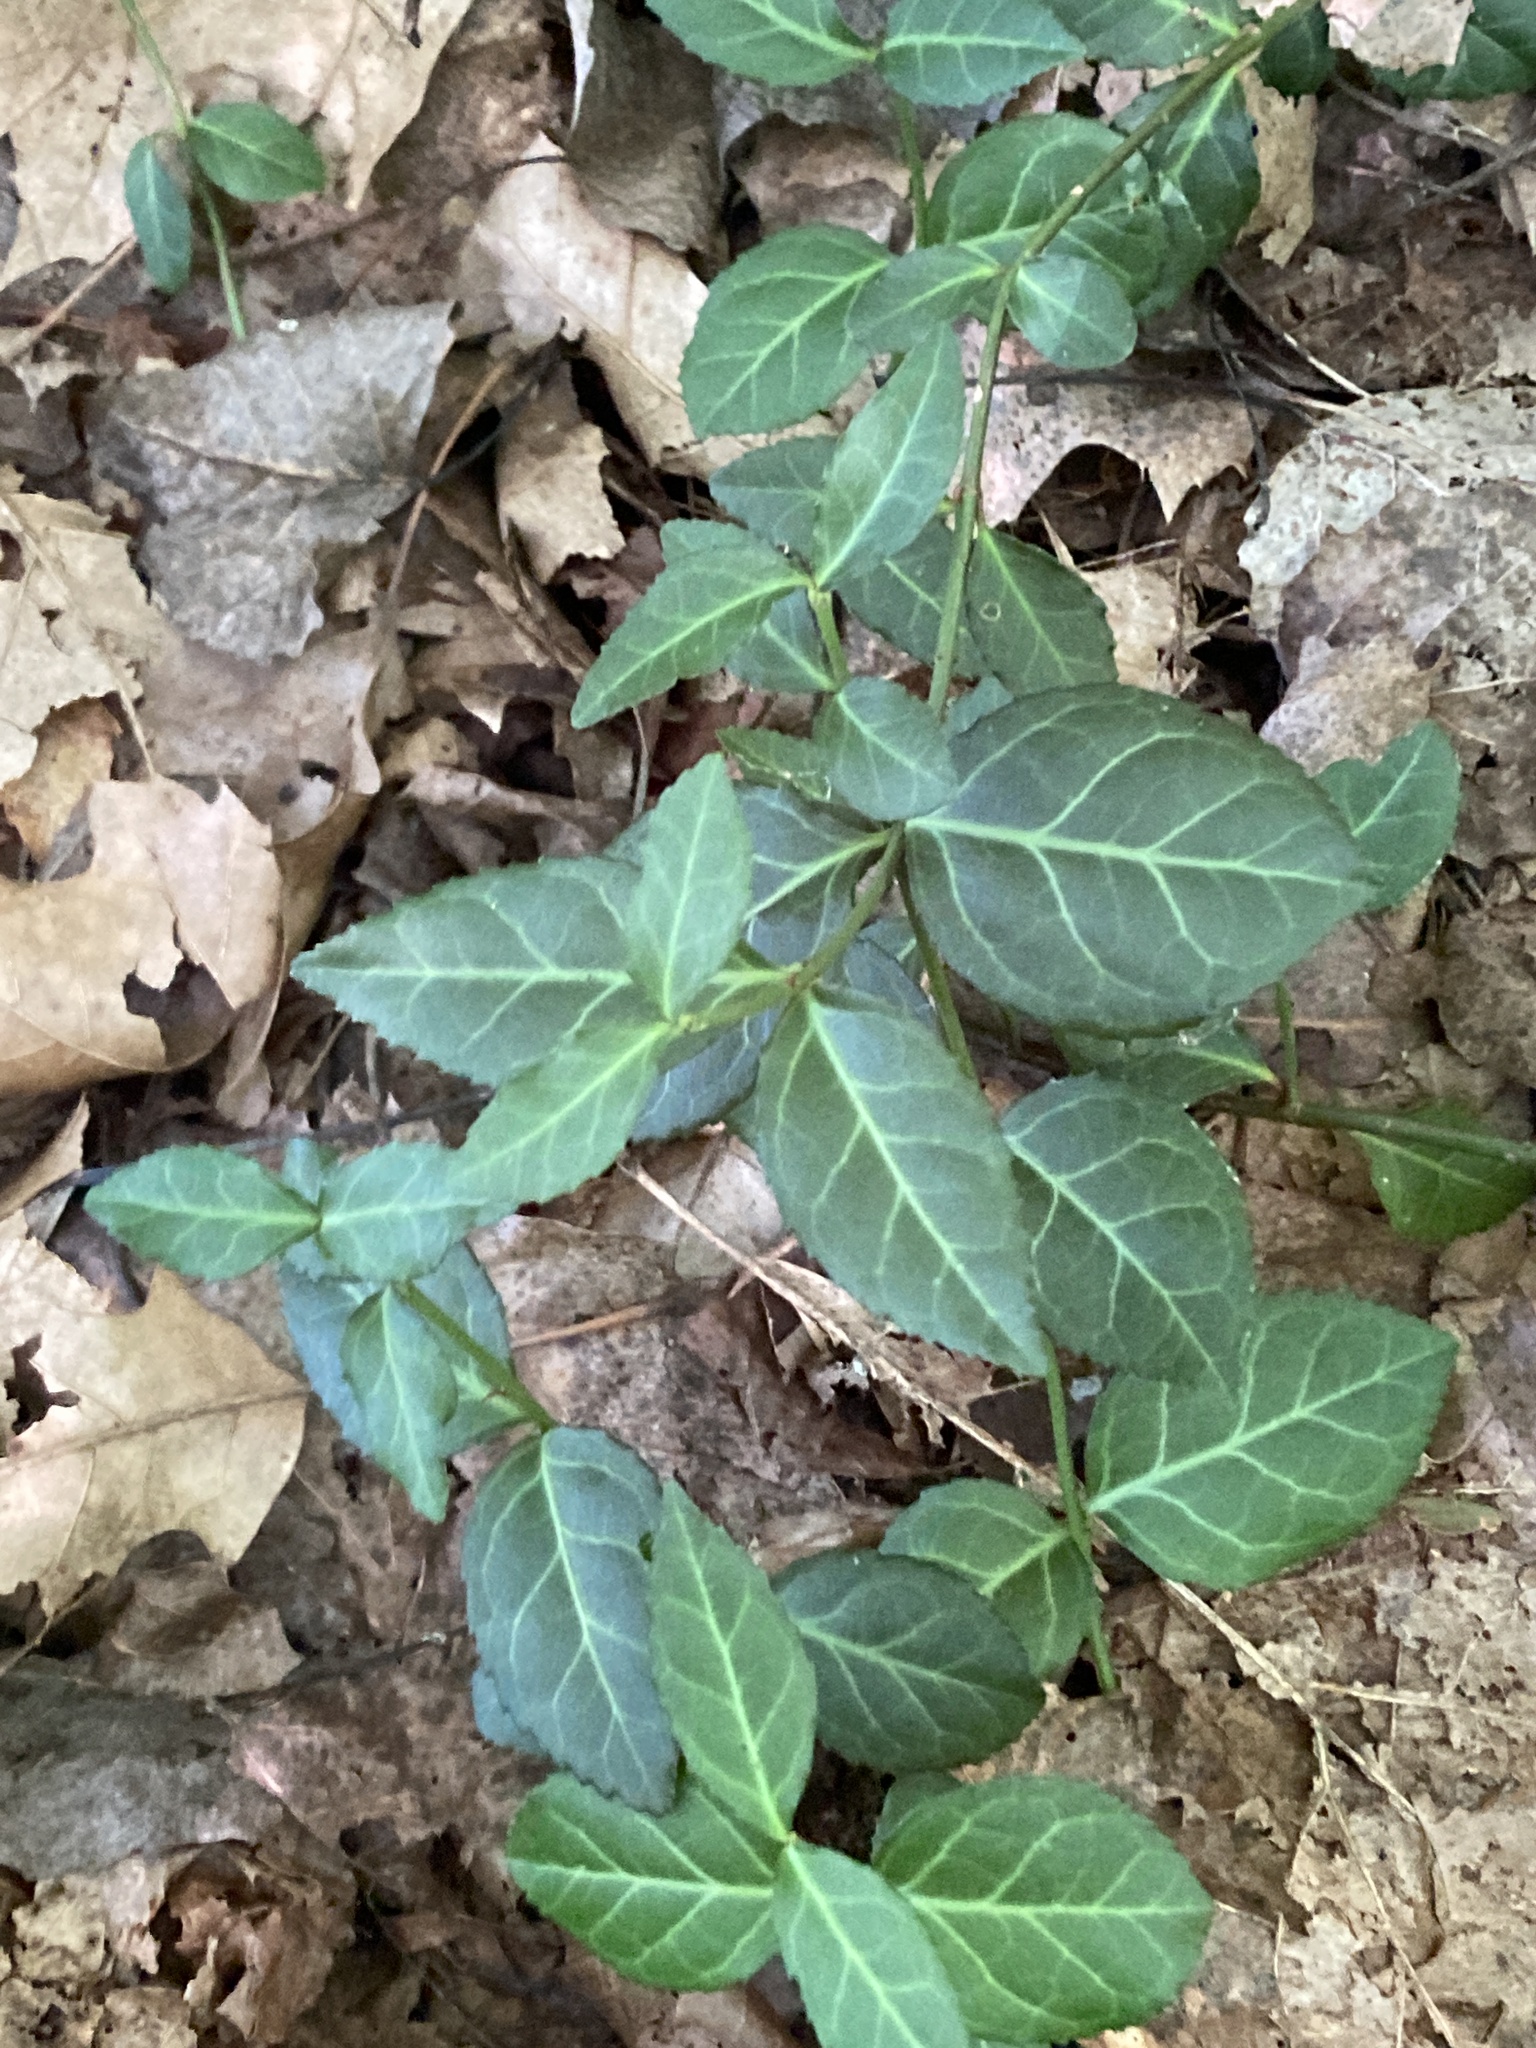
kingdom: Plantae
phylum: Tracheophyta
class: Magnoliopsida
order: Celastrales
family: Celastraceae
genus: Euonymus
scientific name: Euonymus fortunei
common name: Climbing euonymus
